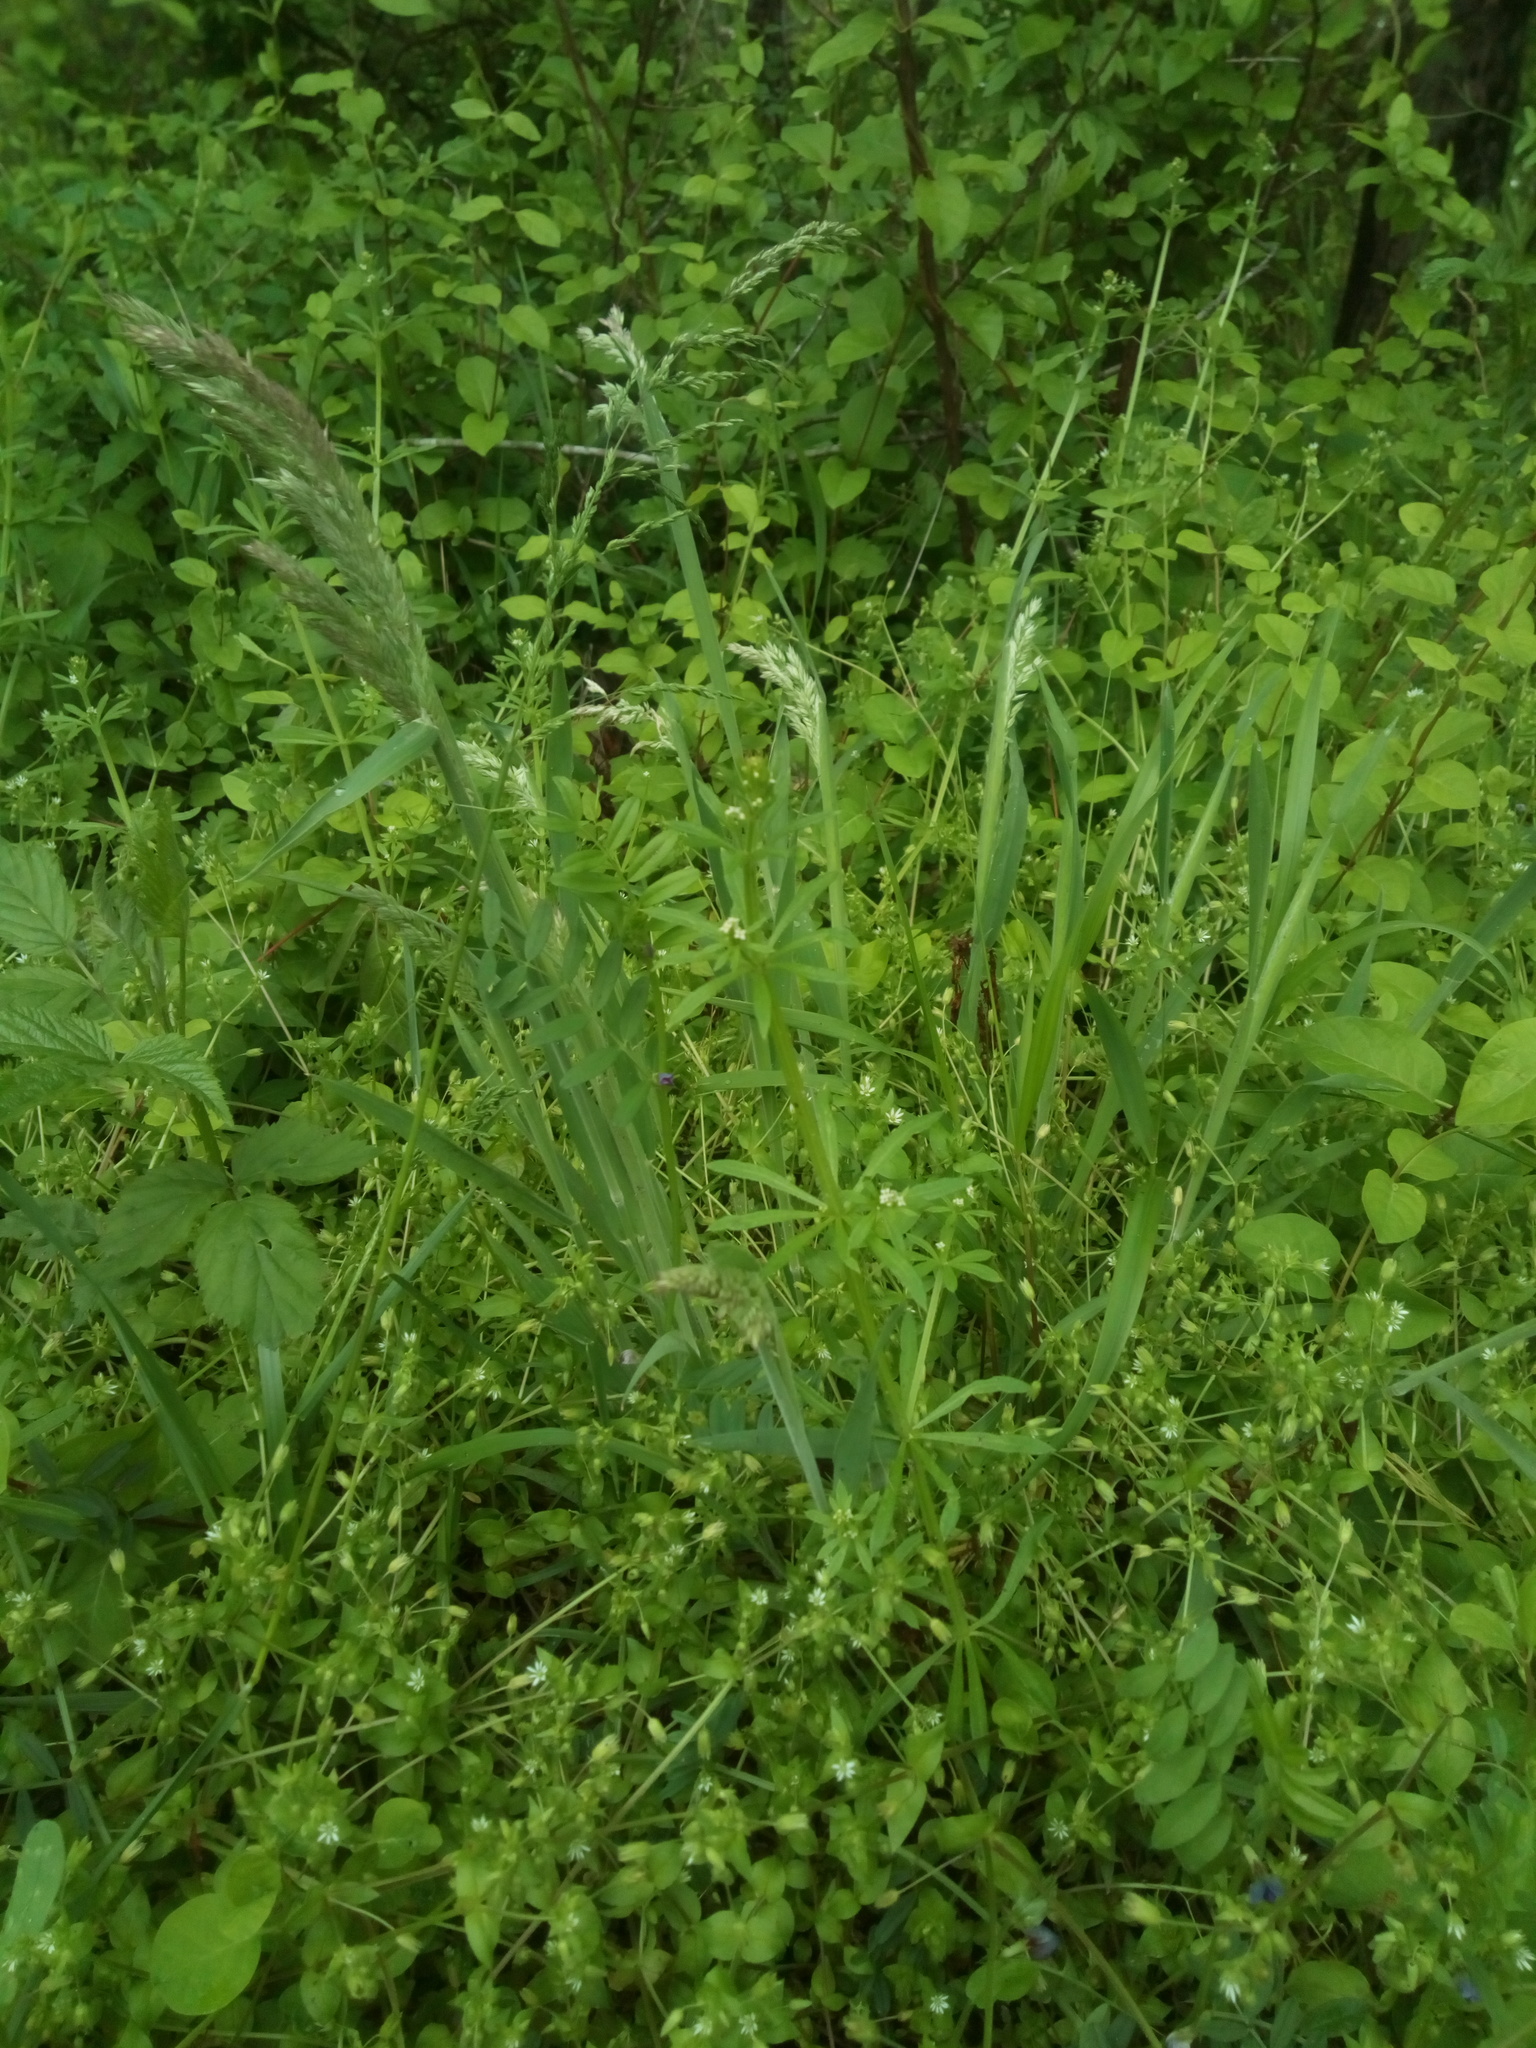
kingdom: Plantae
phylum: Tracheophyta
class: Liliopsida
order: Poales
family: Poaceae
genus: Holcus
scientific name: Holcus lanatus
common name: Yorkshire-fog
